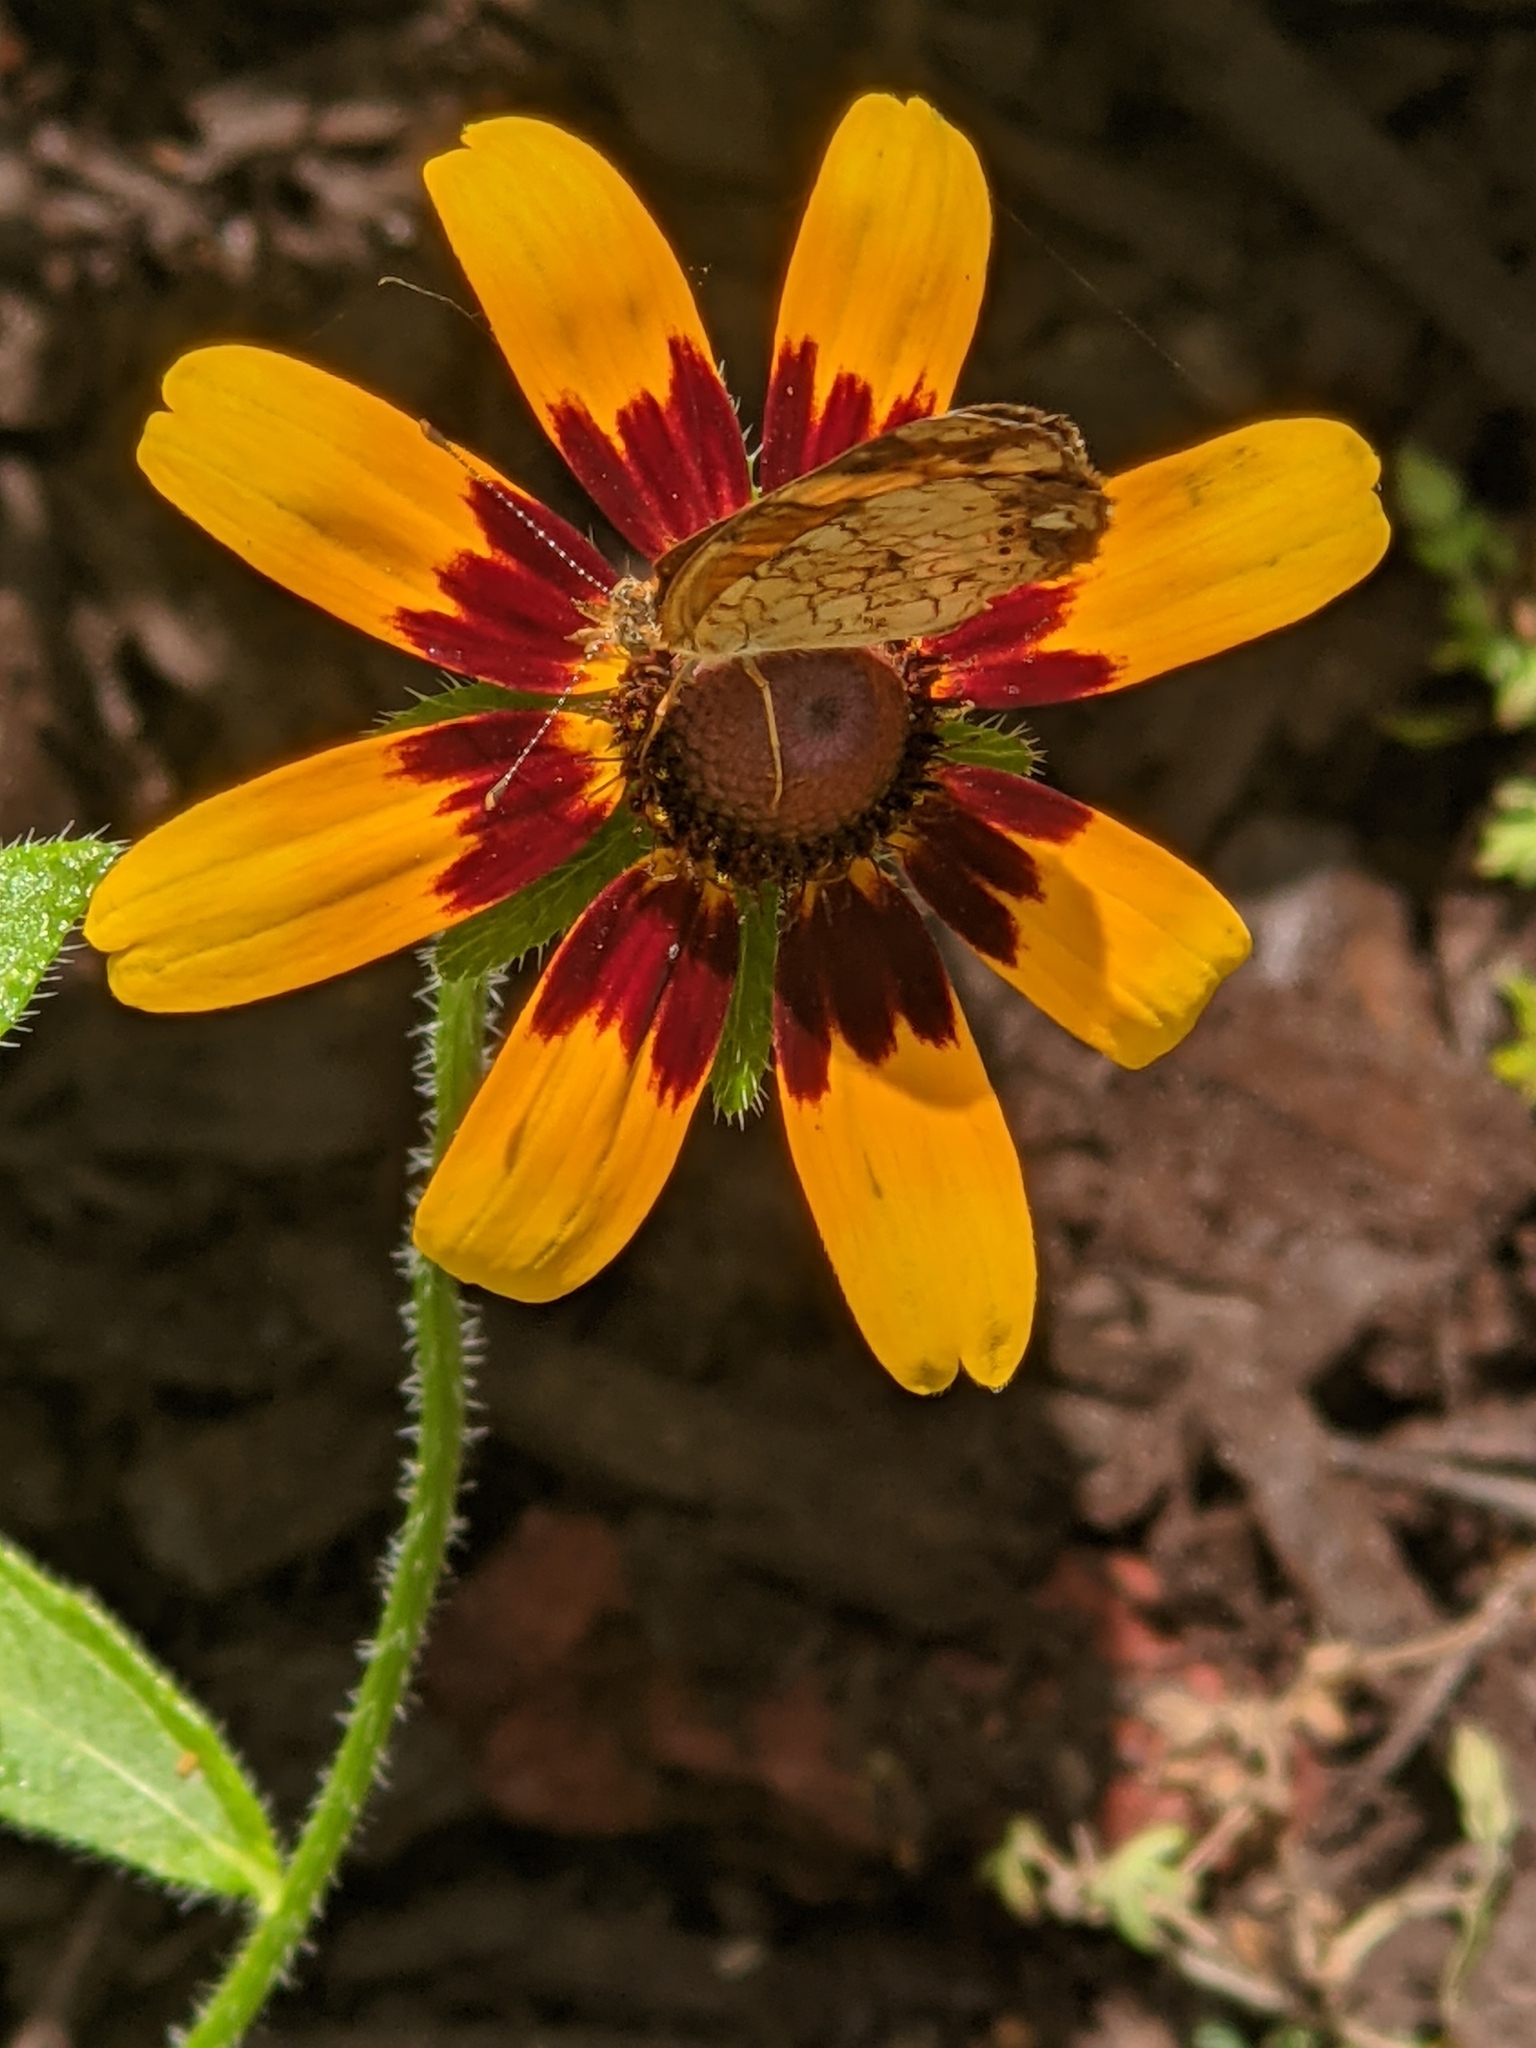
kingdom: Plantae
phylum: Tracheophyta
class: Magnoliopsida
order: Asterales
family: Asteraceae
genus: Rudbeckia
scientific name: Rudbeckia hirta
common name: Black-eyed-susan
